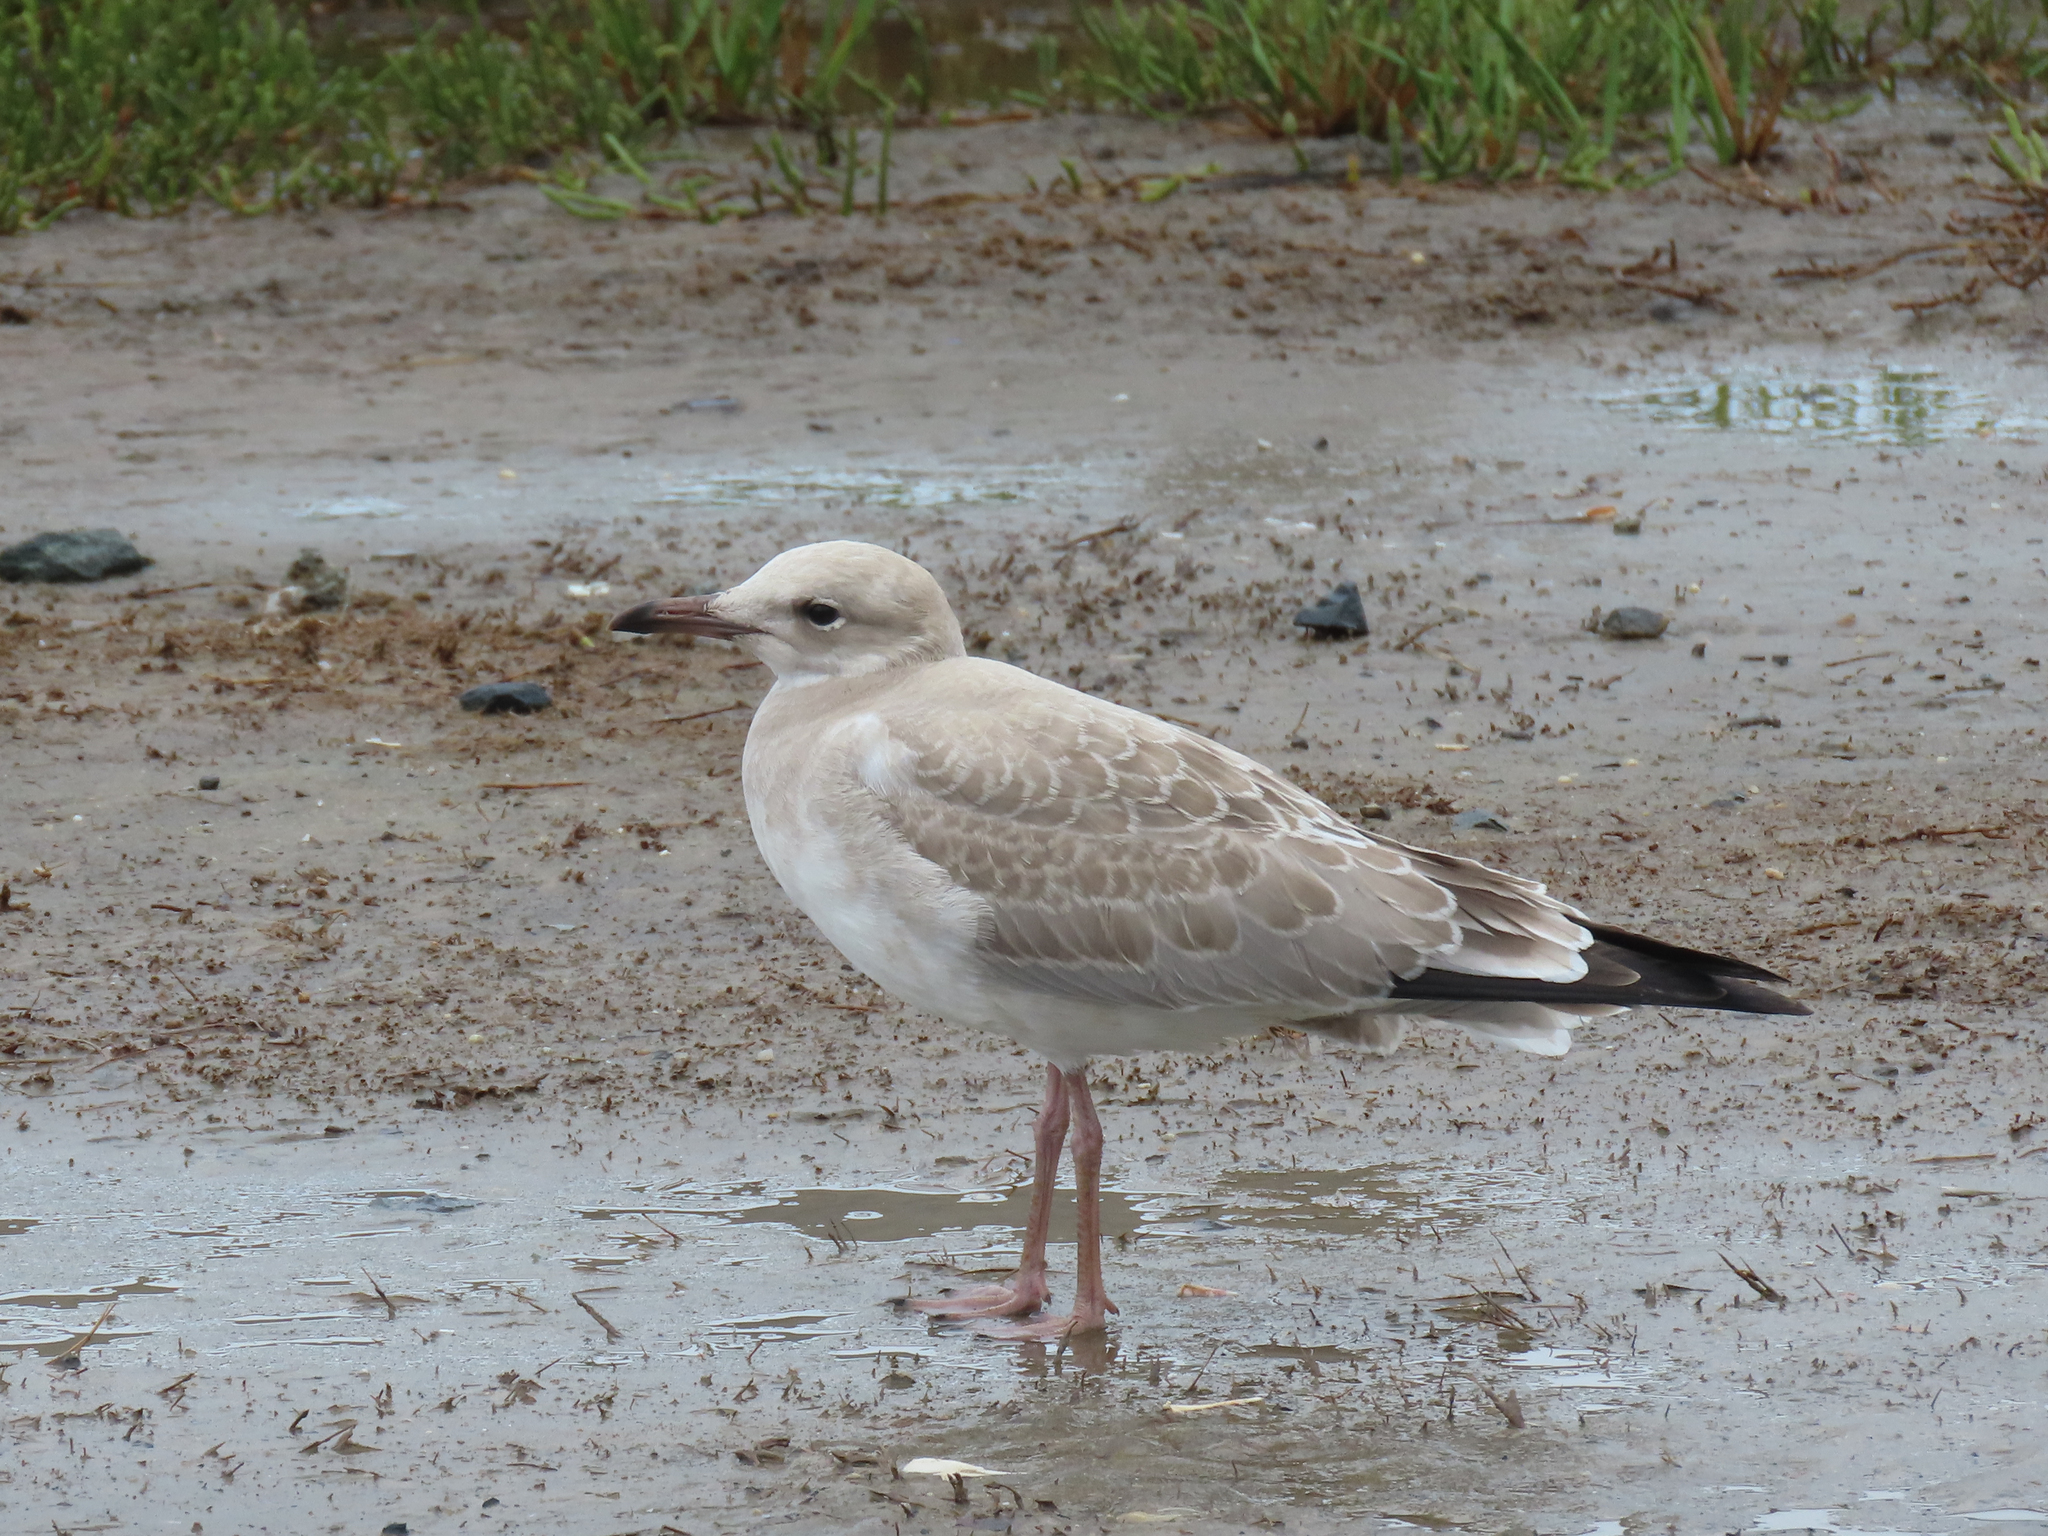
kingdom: Animalia
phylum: Chordata
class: Aves
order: Charadriiformes
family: Laridae
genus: Leucophaeus
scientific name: Leucophaeus atricilla
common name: Laughing gull
